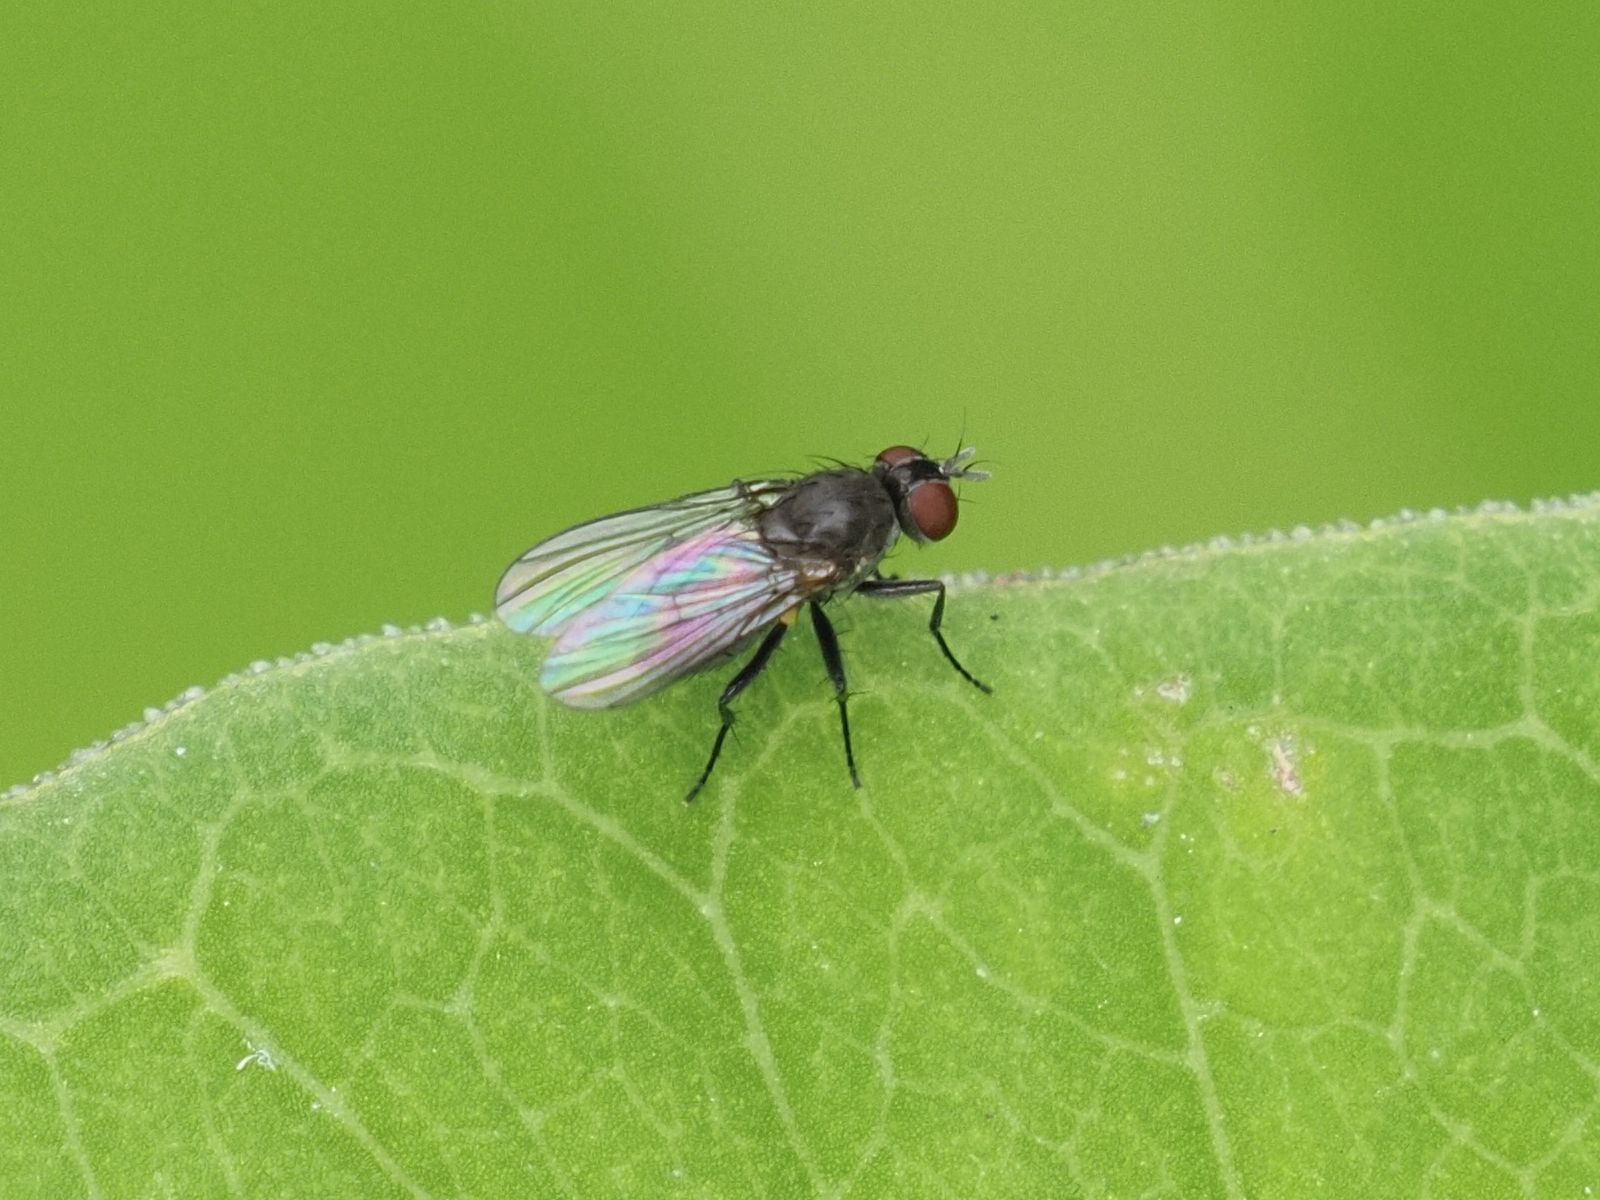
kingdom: Animalia
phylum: Arthropoda
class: Insecta
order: Diptera
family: Muscidae
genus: Coenosia
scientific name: Coenosia agromyzina
